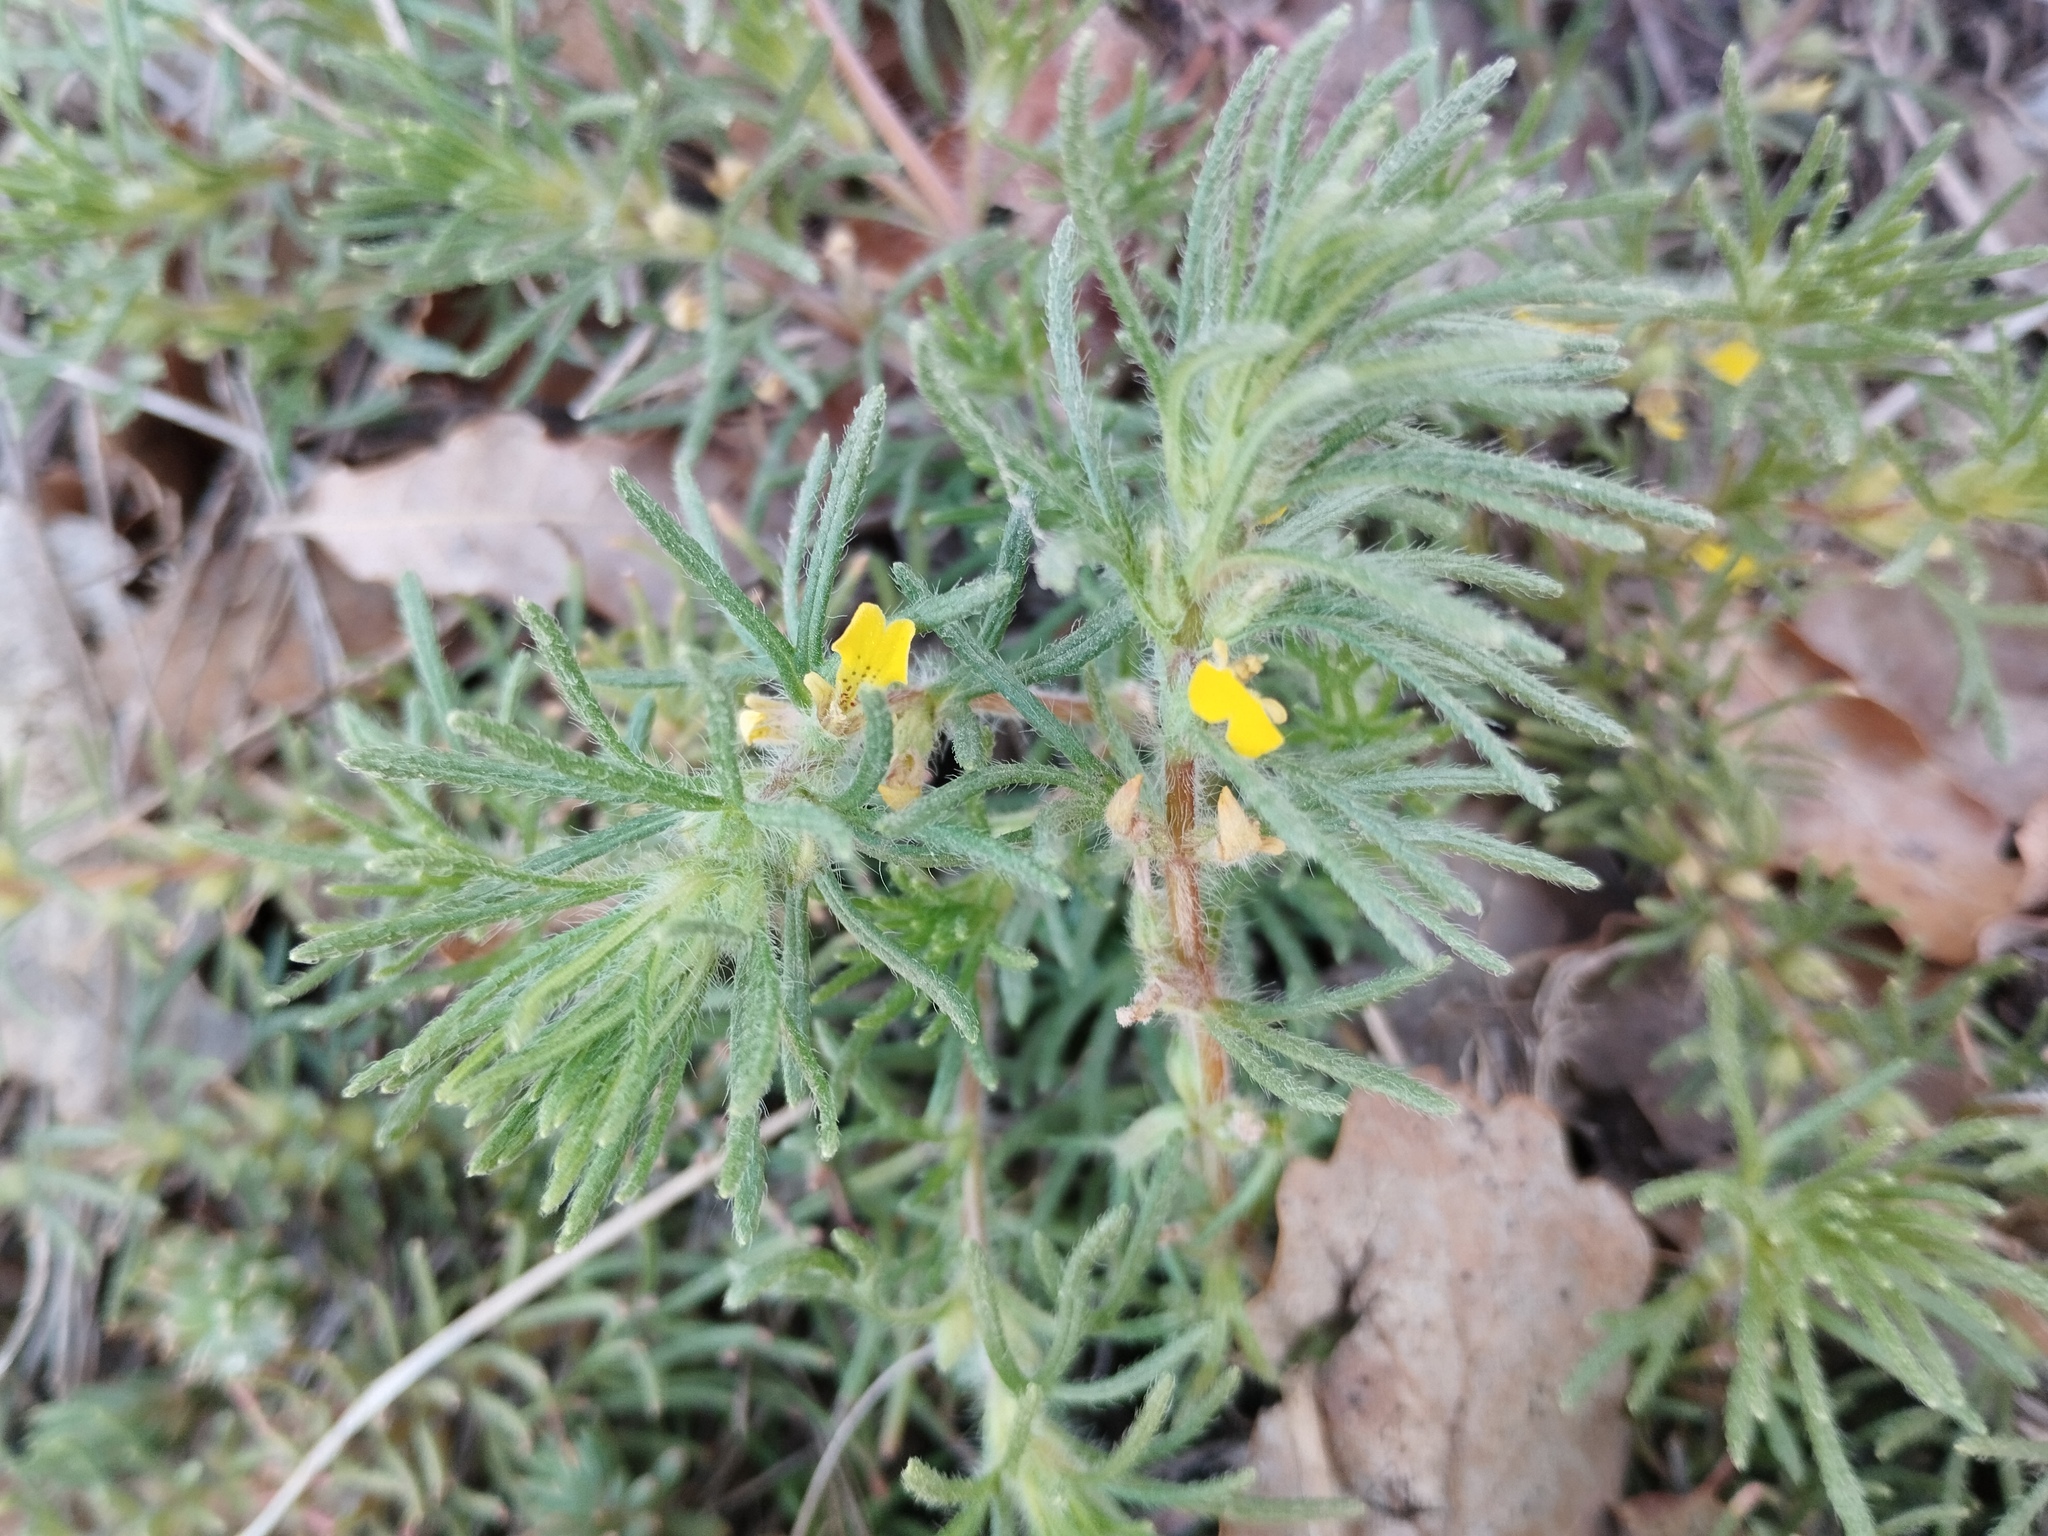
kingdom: Plantae
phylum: Tracheophyta
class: Magnoliopsida
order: Lamiales
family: Lamiaceae
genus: Ajuga
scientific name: Ajuga chamaepitys
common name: Ground-pine
